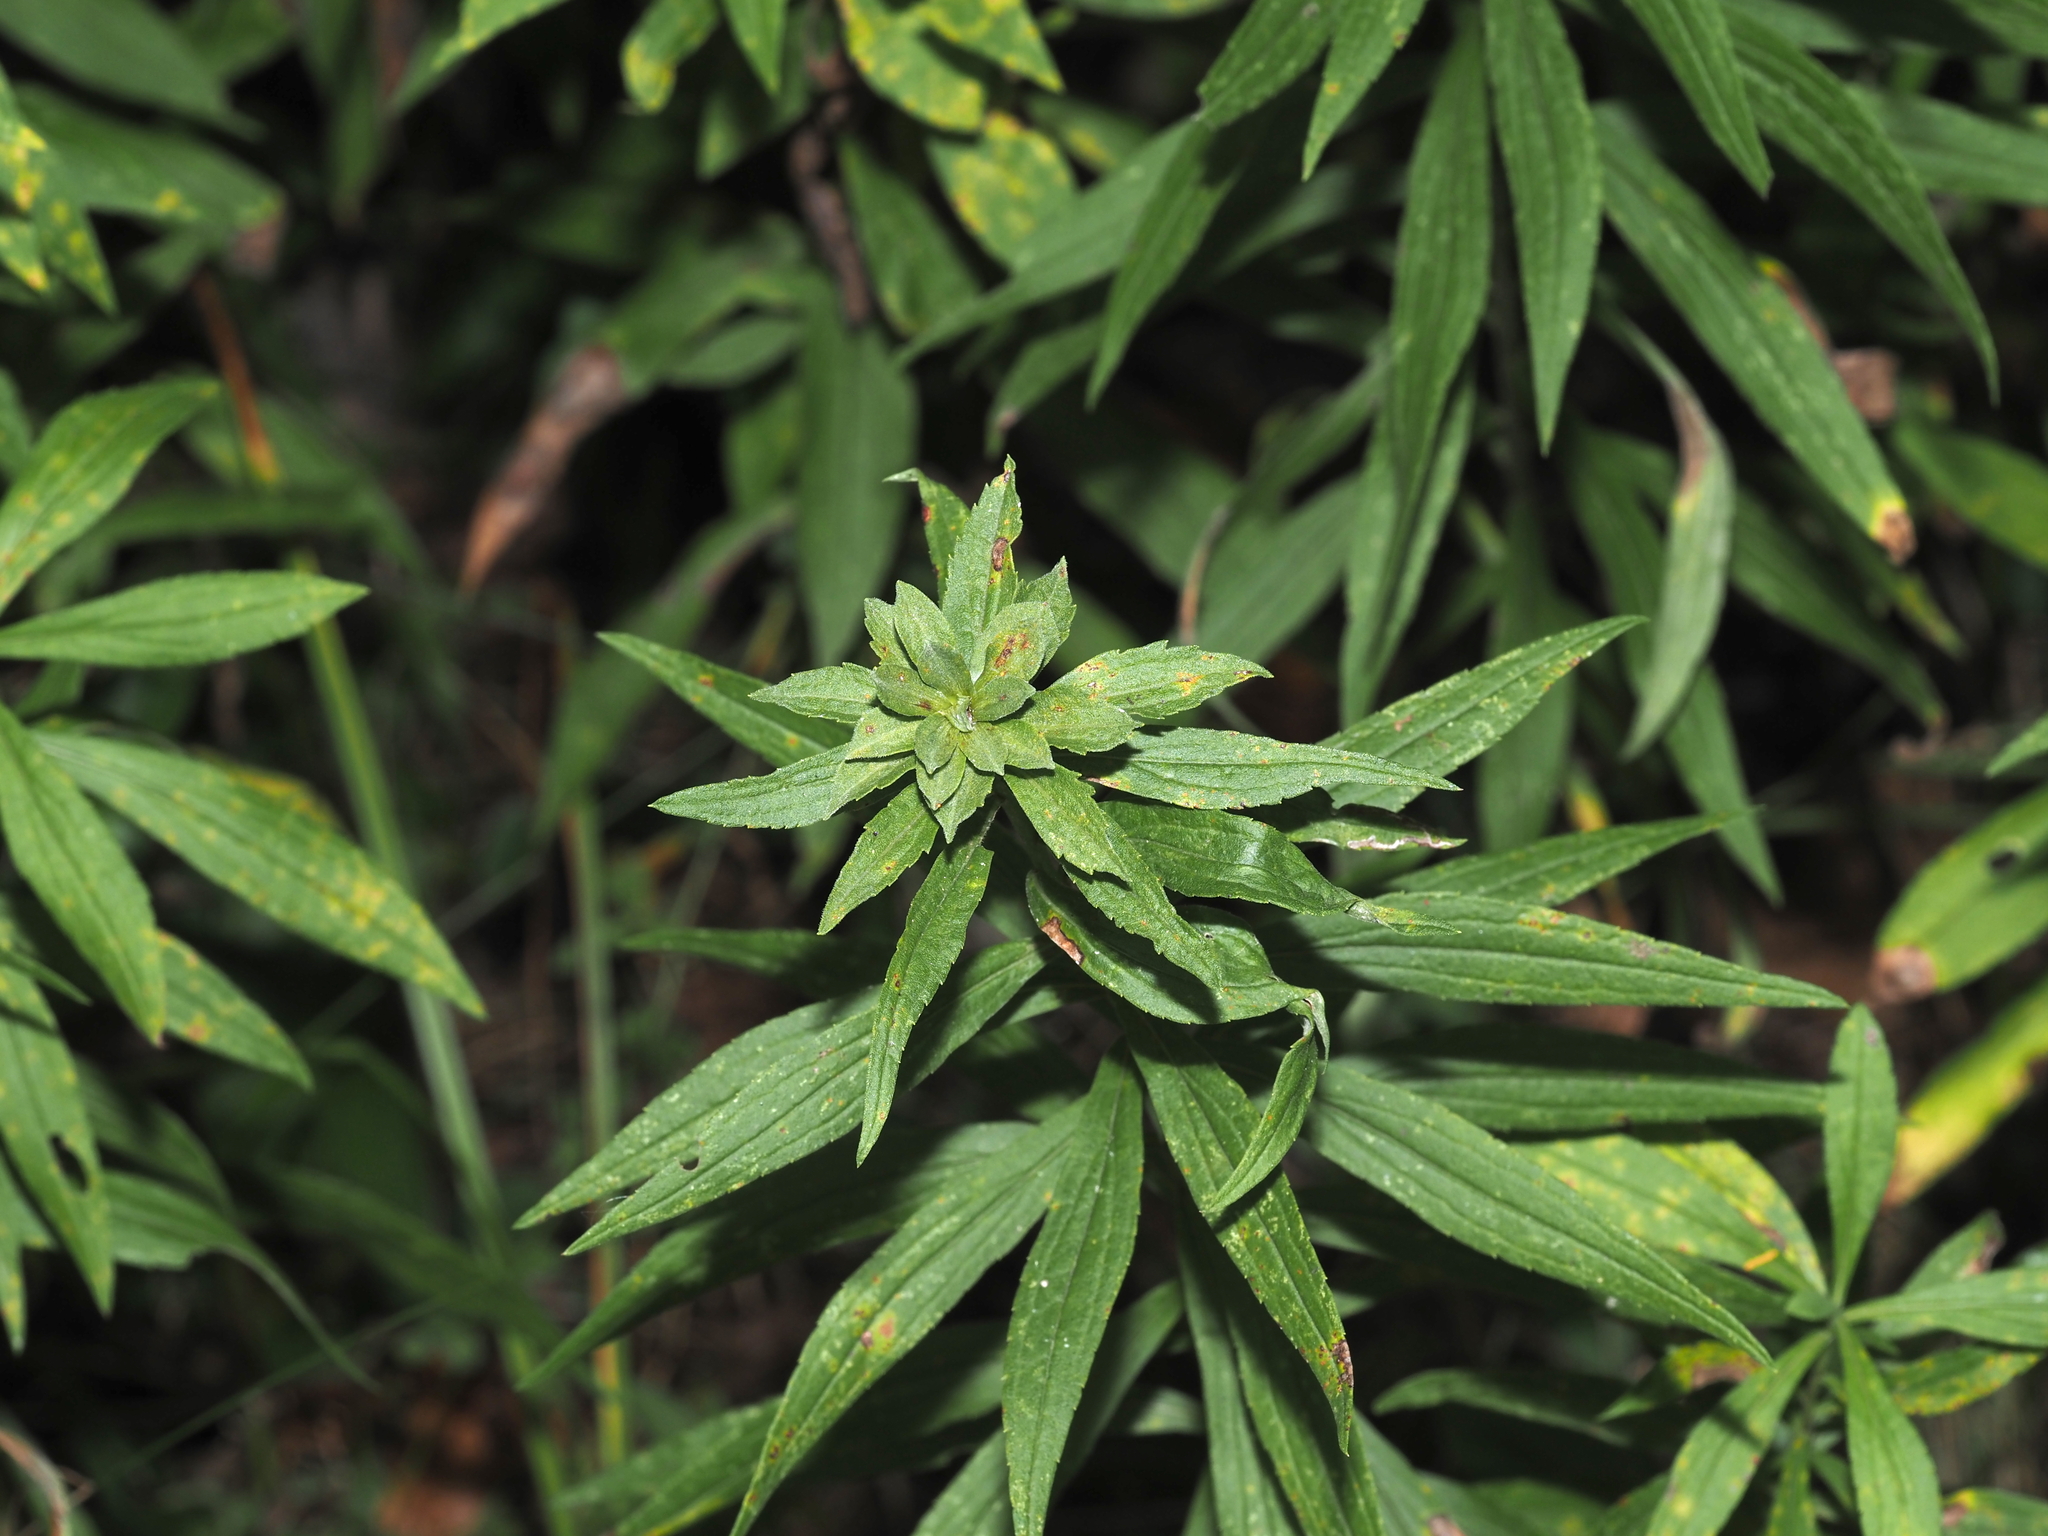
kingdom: Animalia
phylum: Arthropoda
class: Insecta
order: Diptera
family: Cecidomyiidae
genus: Asphondylia
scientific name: Asphondylia solidaginis
